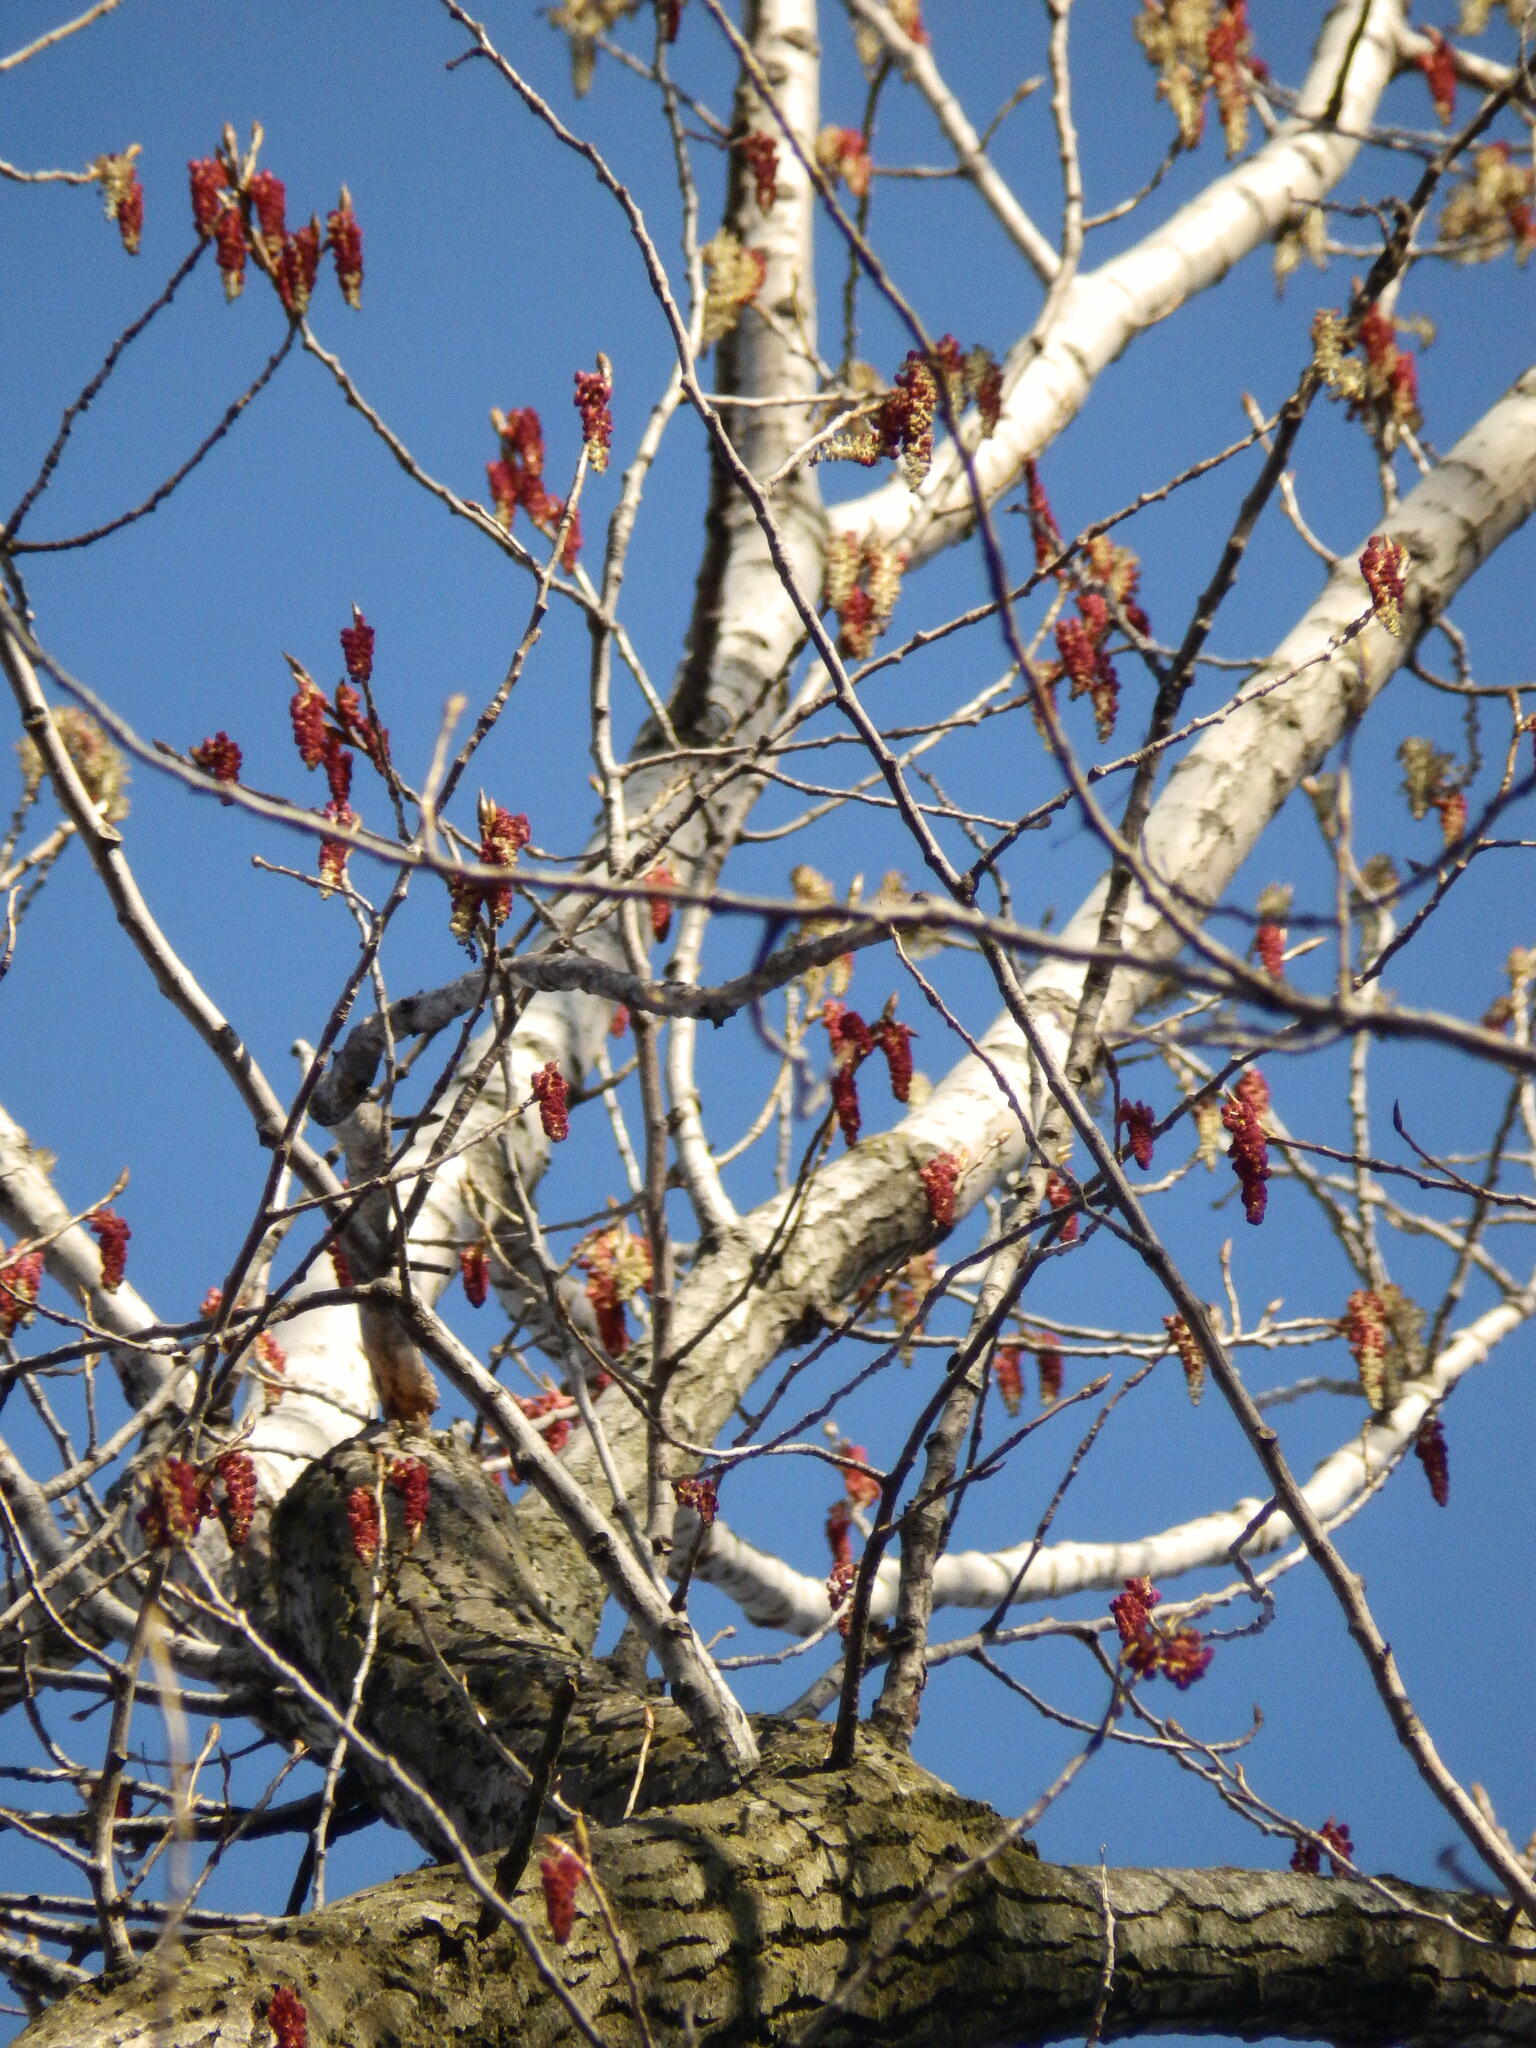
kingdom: Plantae
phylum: Tracheophyta
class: Magnoliopsida
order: Malpighiales
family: Salicaceae
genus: Populus
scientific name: Populus deltoides
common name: Eastern cottonwood
